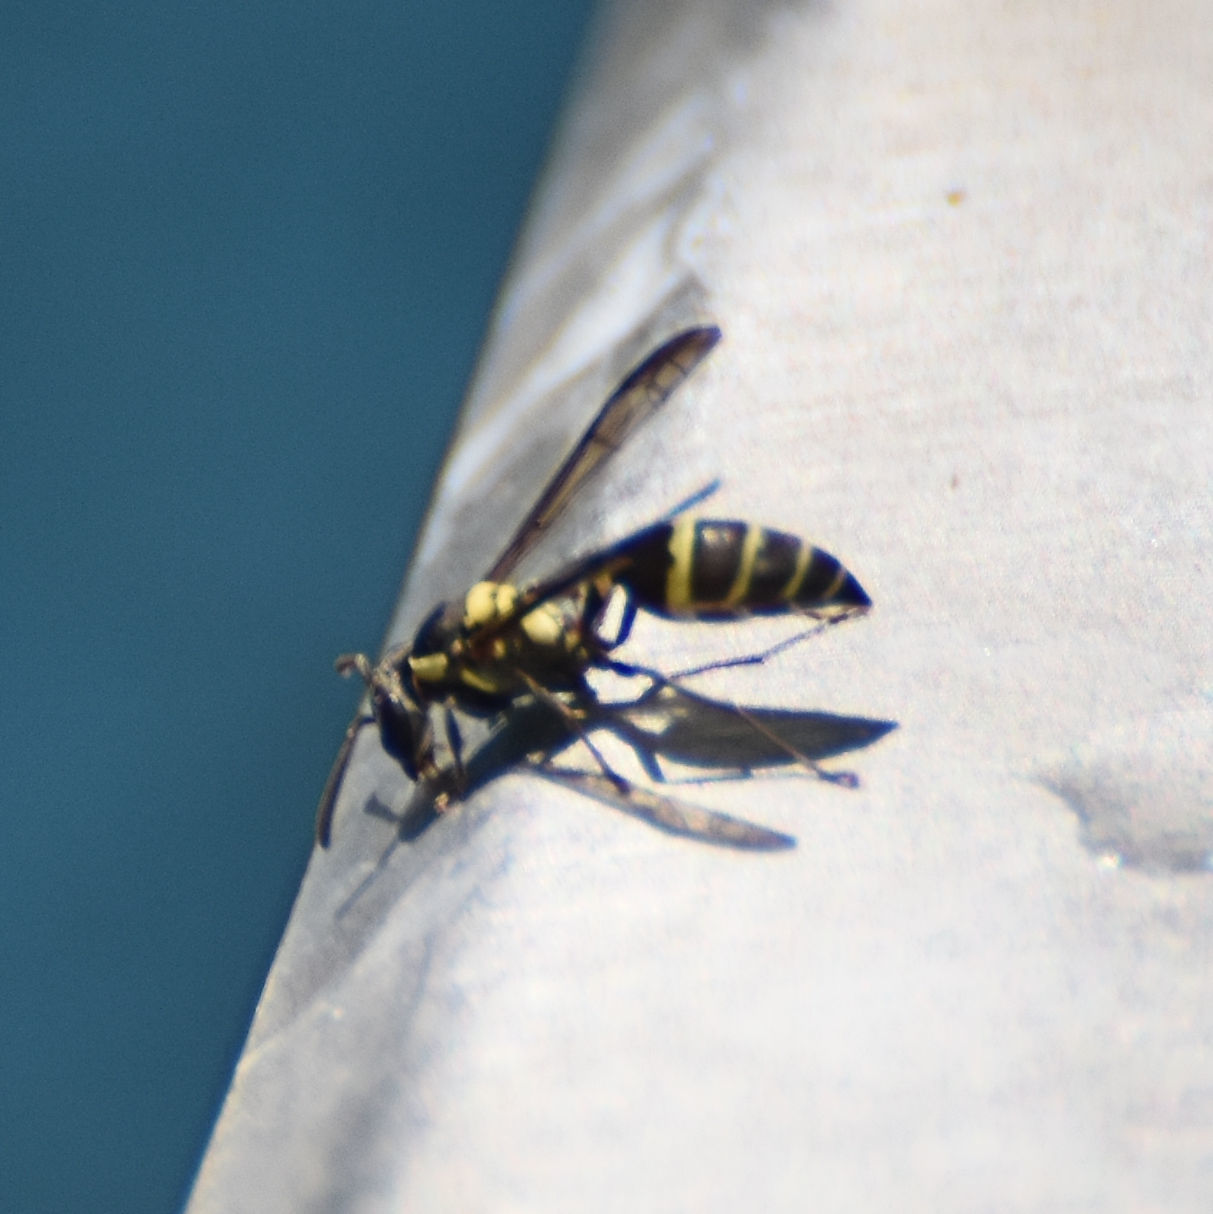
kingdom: Animalia
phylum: Arthropoda
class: Insecta
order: Hymenoptera
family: Eumenidae
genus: Polybia
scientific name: Polybia occidentalis
